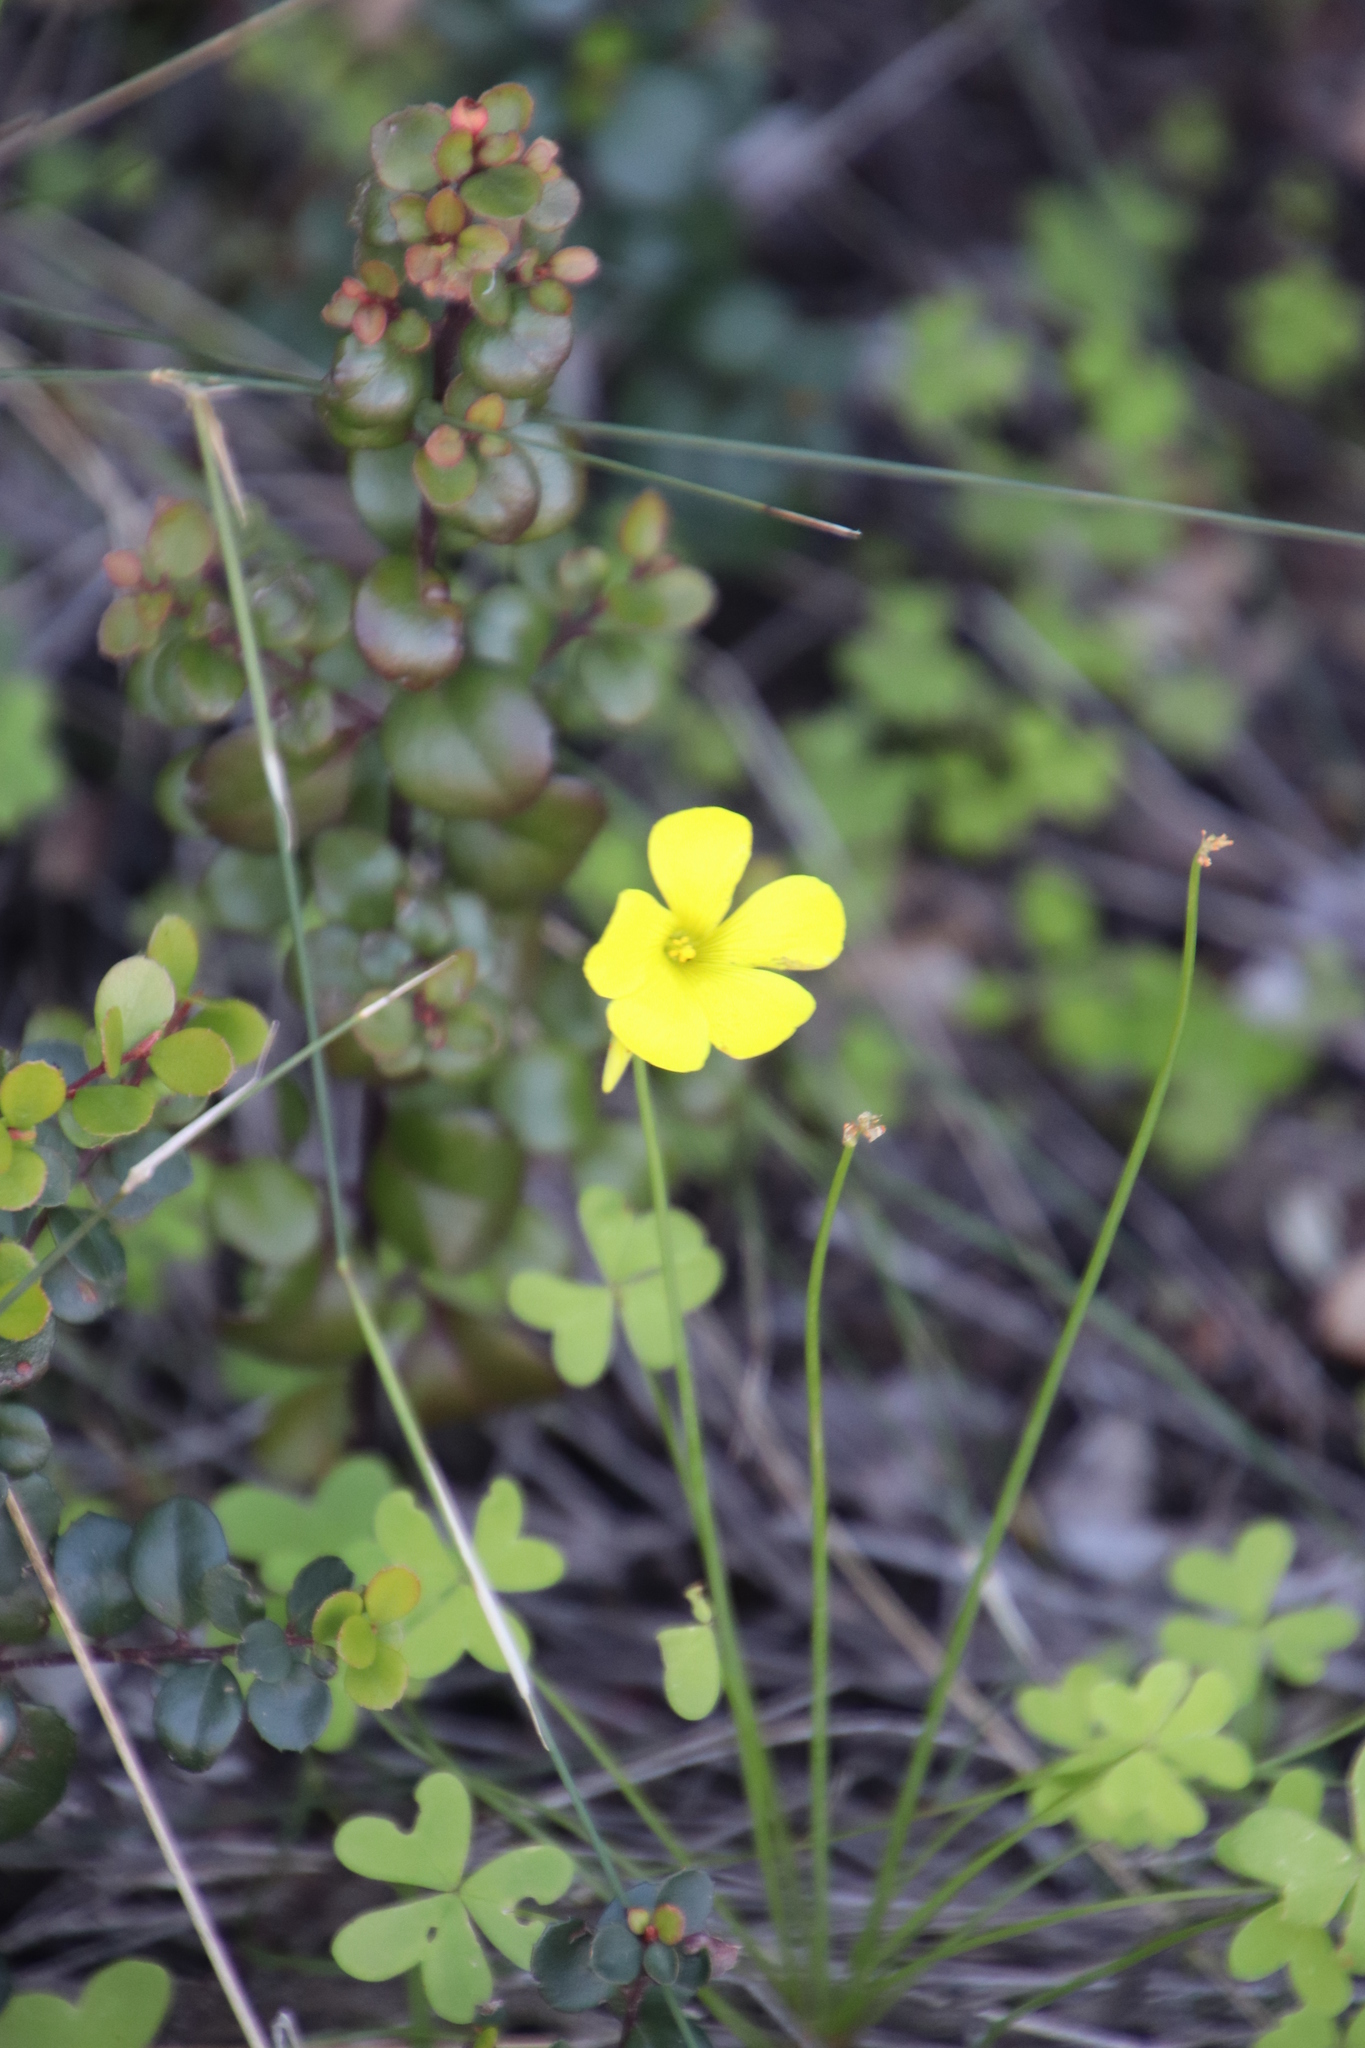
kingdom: Plantae
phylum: Tracheophyta
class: Magnoliopsida
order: Oxalidales
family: Oxalidaceae
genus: Oxalis
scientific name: Oxalis pes-caprae
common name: Bermuda-buttercup
